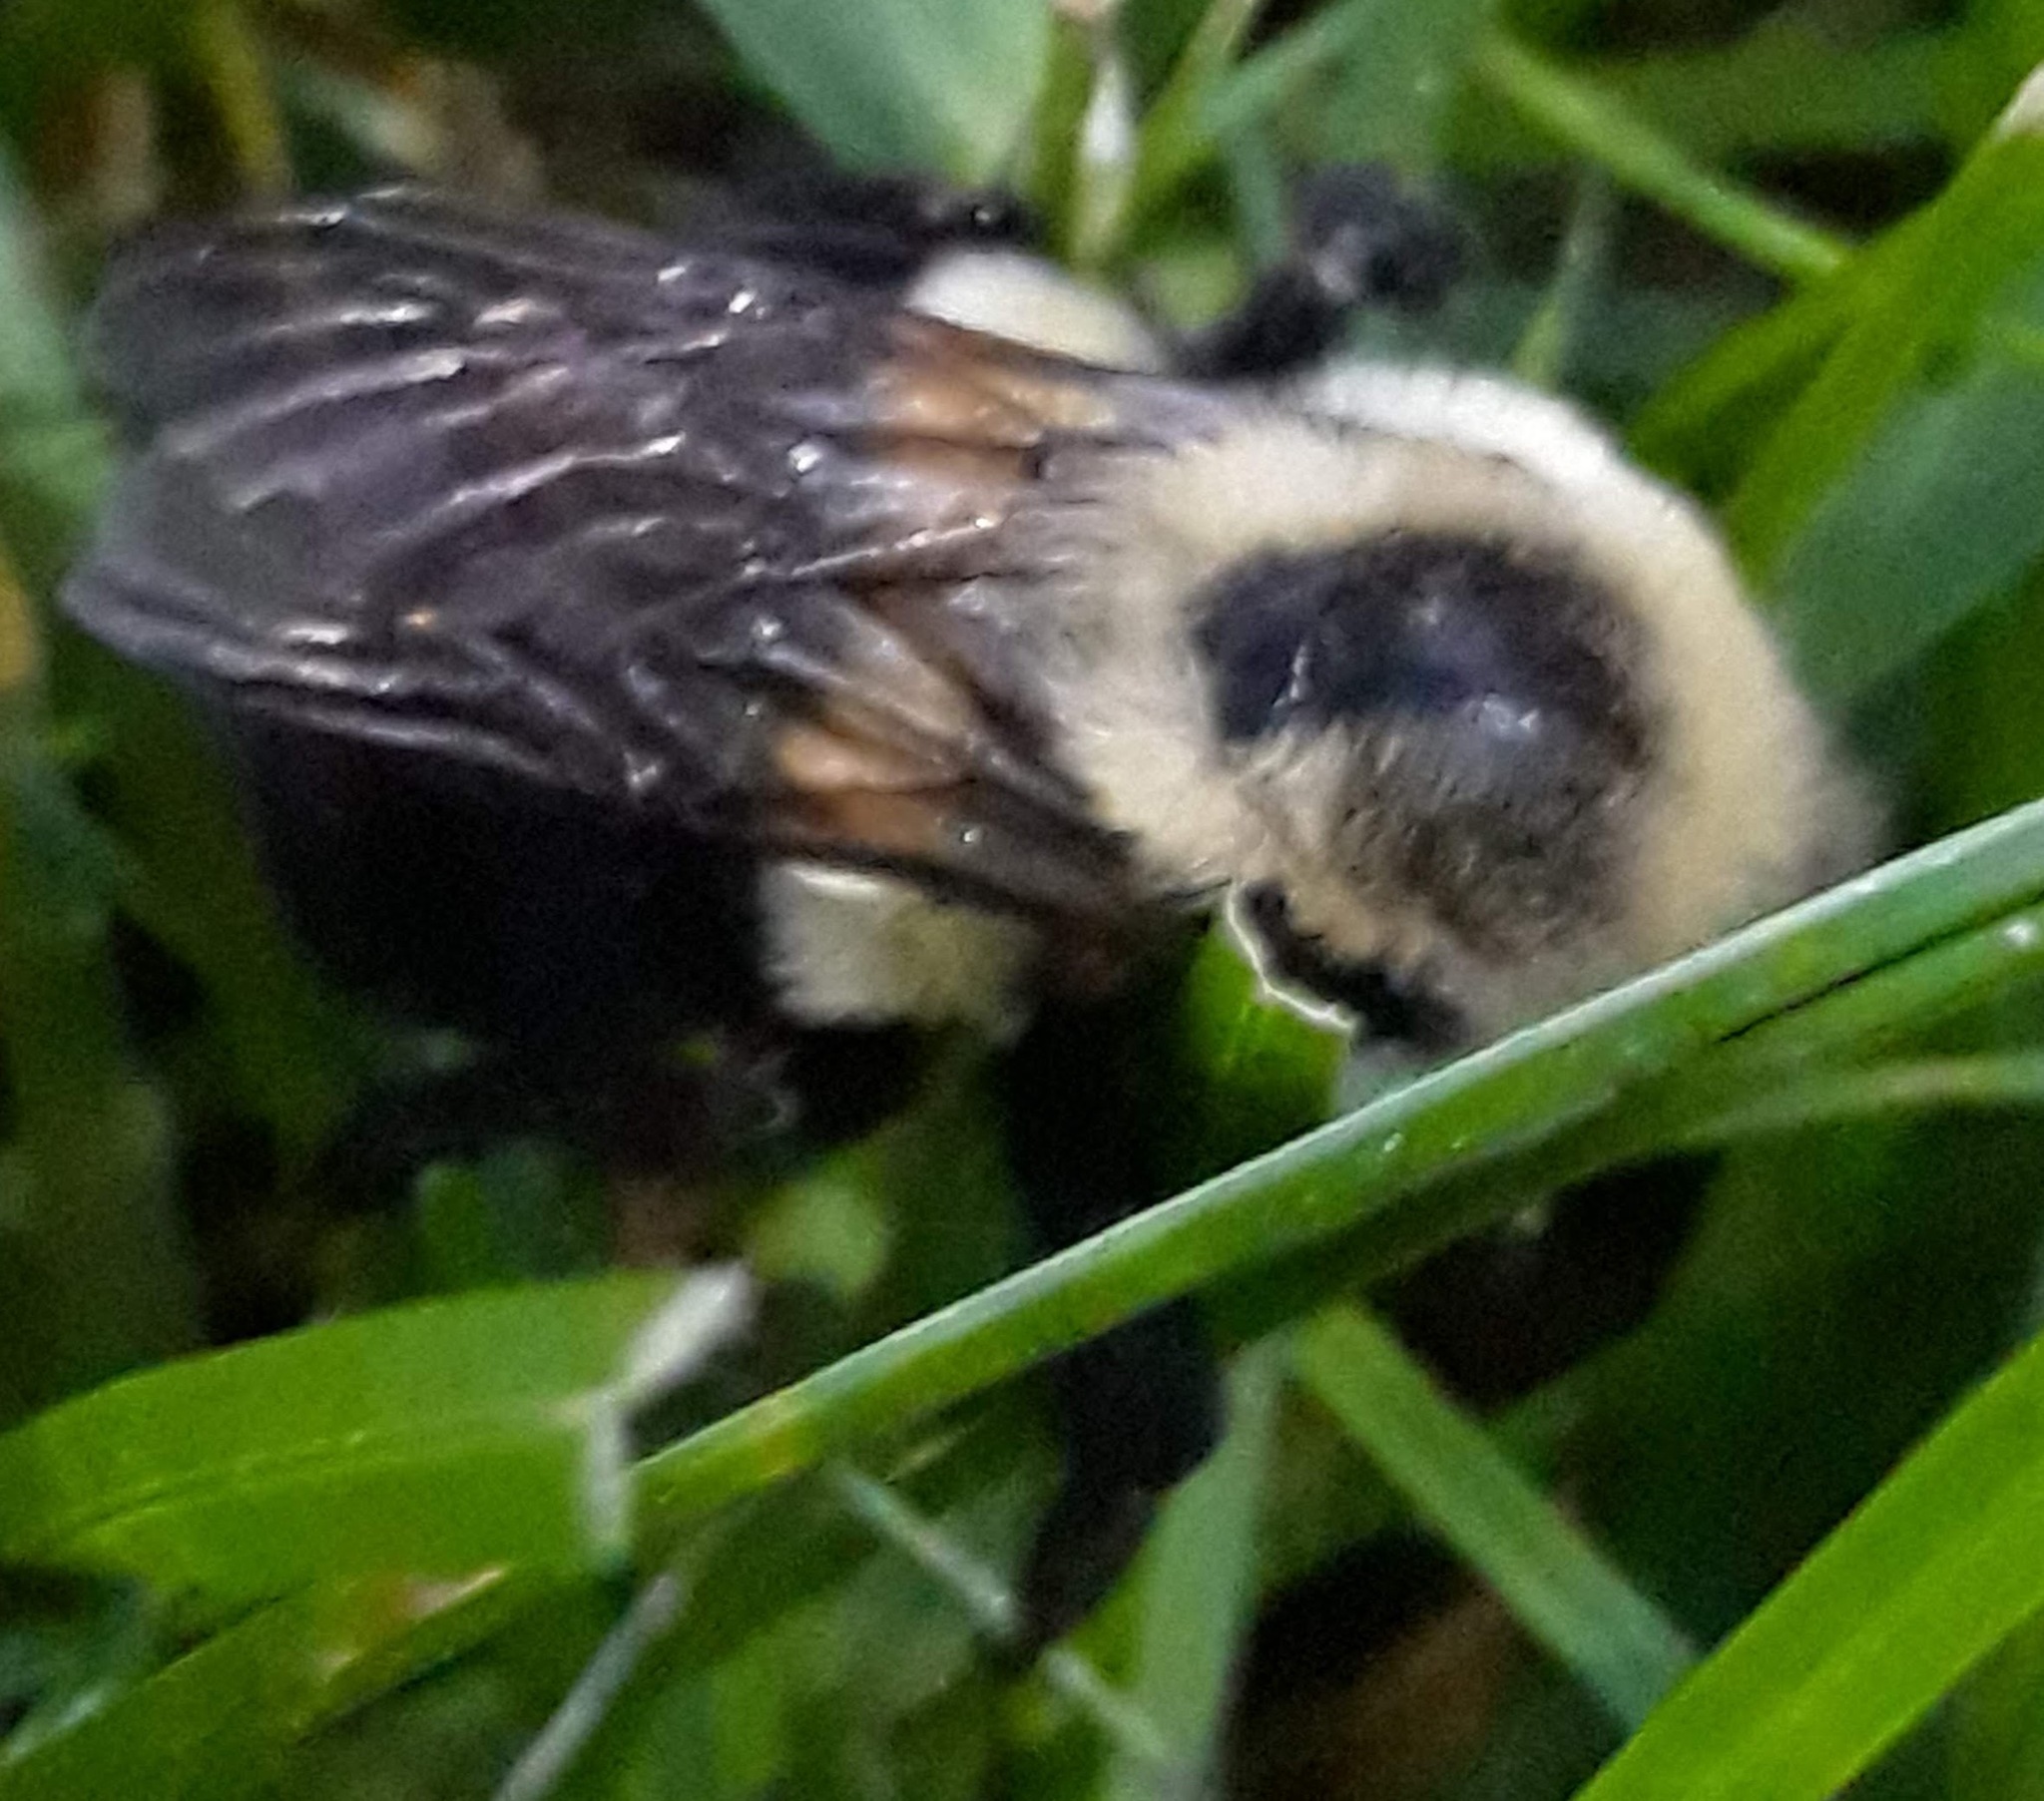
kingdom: Animalia
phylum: Arthropoda
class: Insecta
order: Hymenoptera
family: Apidae
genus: Bombus
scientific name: Bombus impatiens
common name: Common eastern bumble bee
